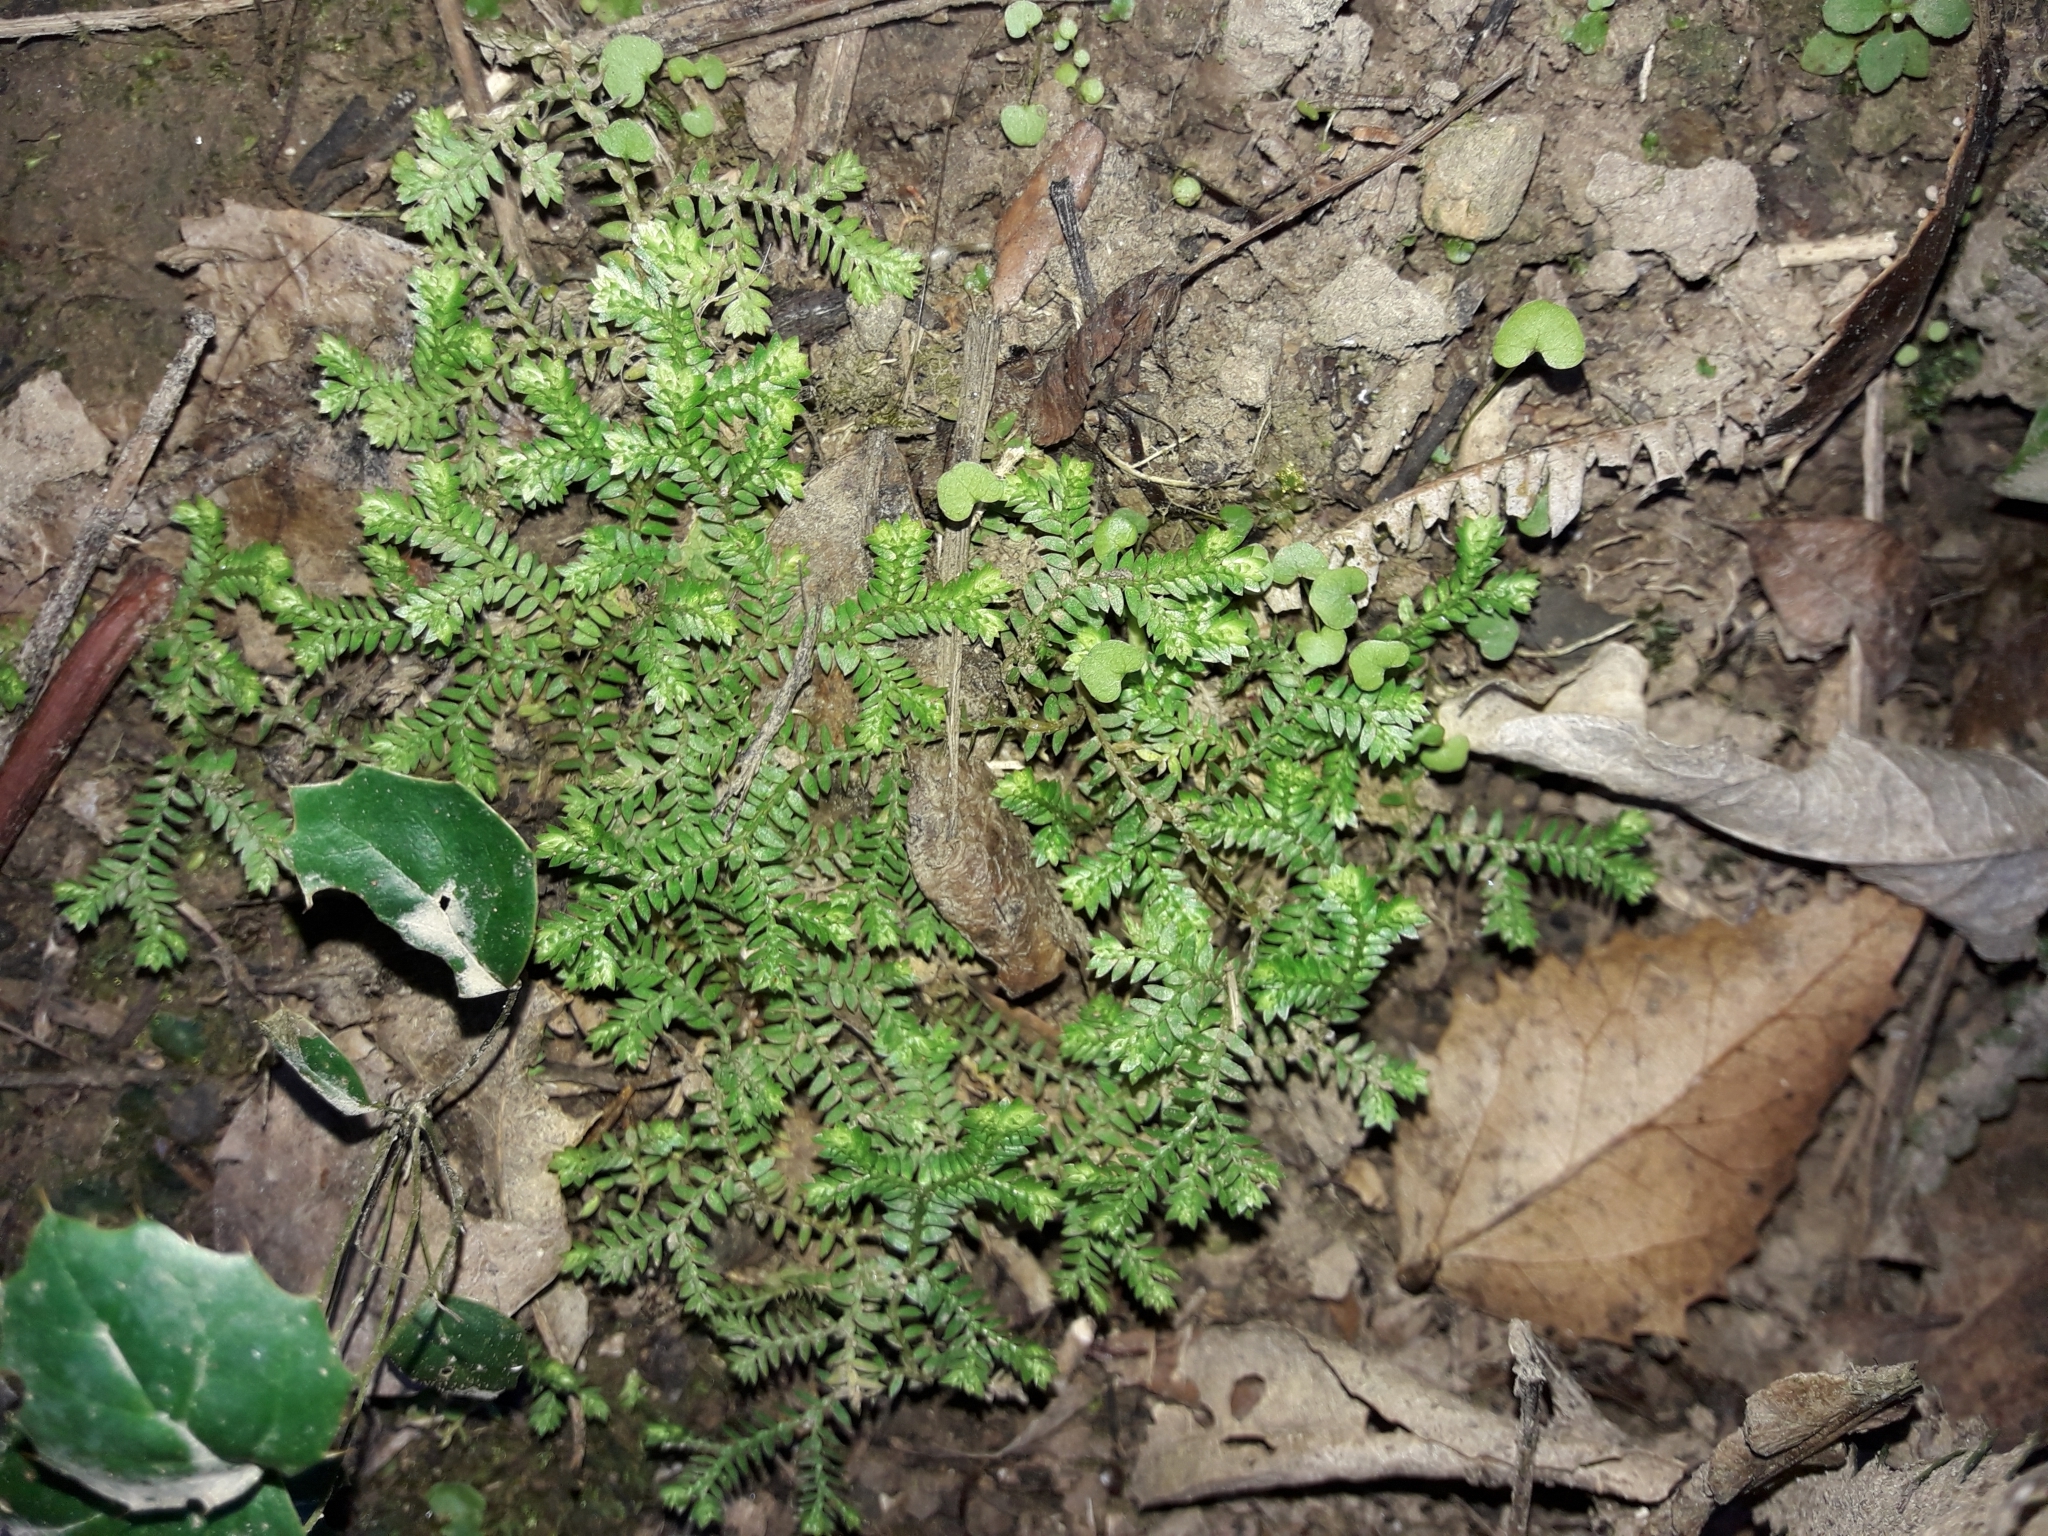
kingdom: Plantae
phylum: Tracheophyta
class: Lycopodiopsida
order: Selaginellales
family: Selaginellaceae
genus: Selaginella
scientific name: Selaginella kraussiana
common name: Krauss' spikemoss
